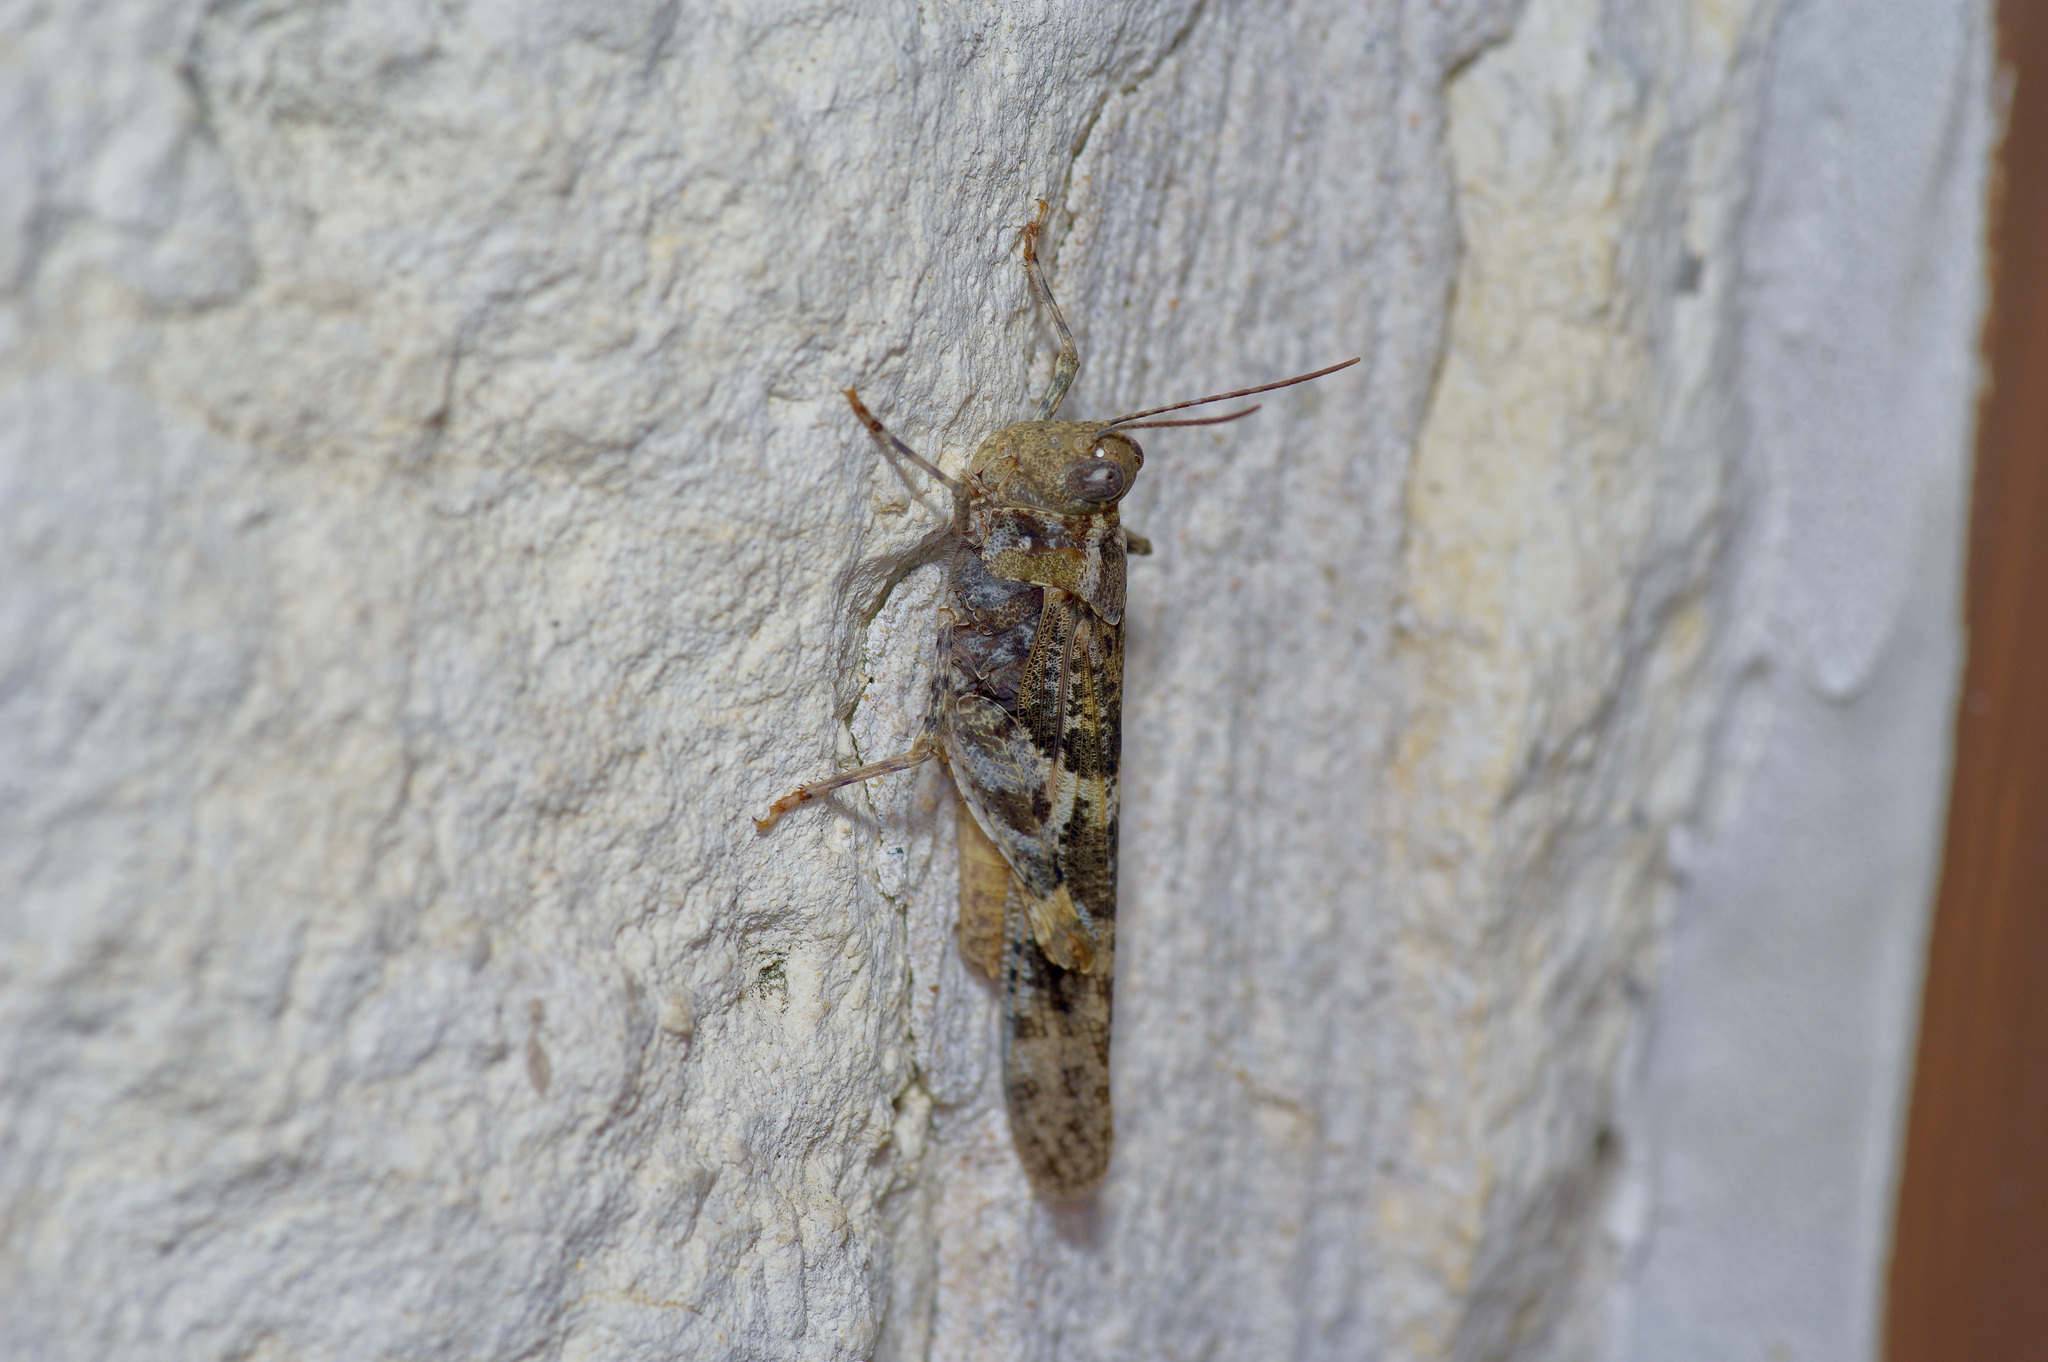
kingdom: Animalia
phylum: Arthropoda
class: Insecta
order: Orthoptera
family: Acrididae
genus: Trimerotropis
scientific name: Trimerotropis pallidipennis
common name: Pallid-winged grasshopper
